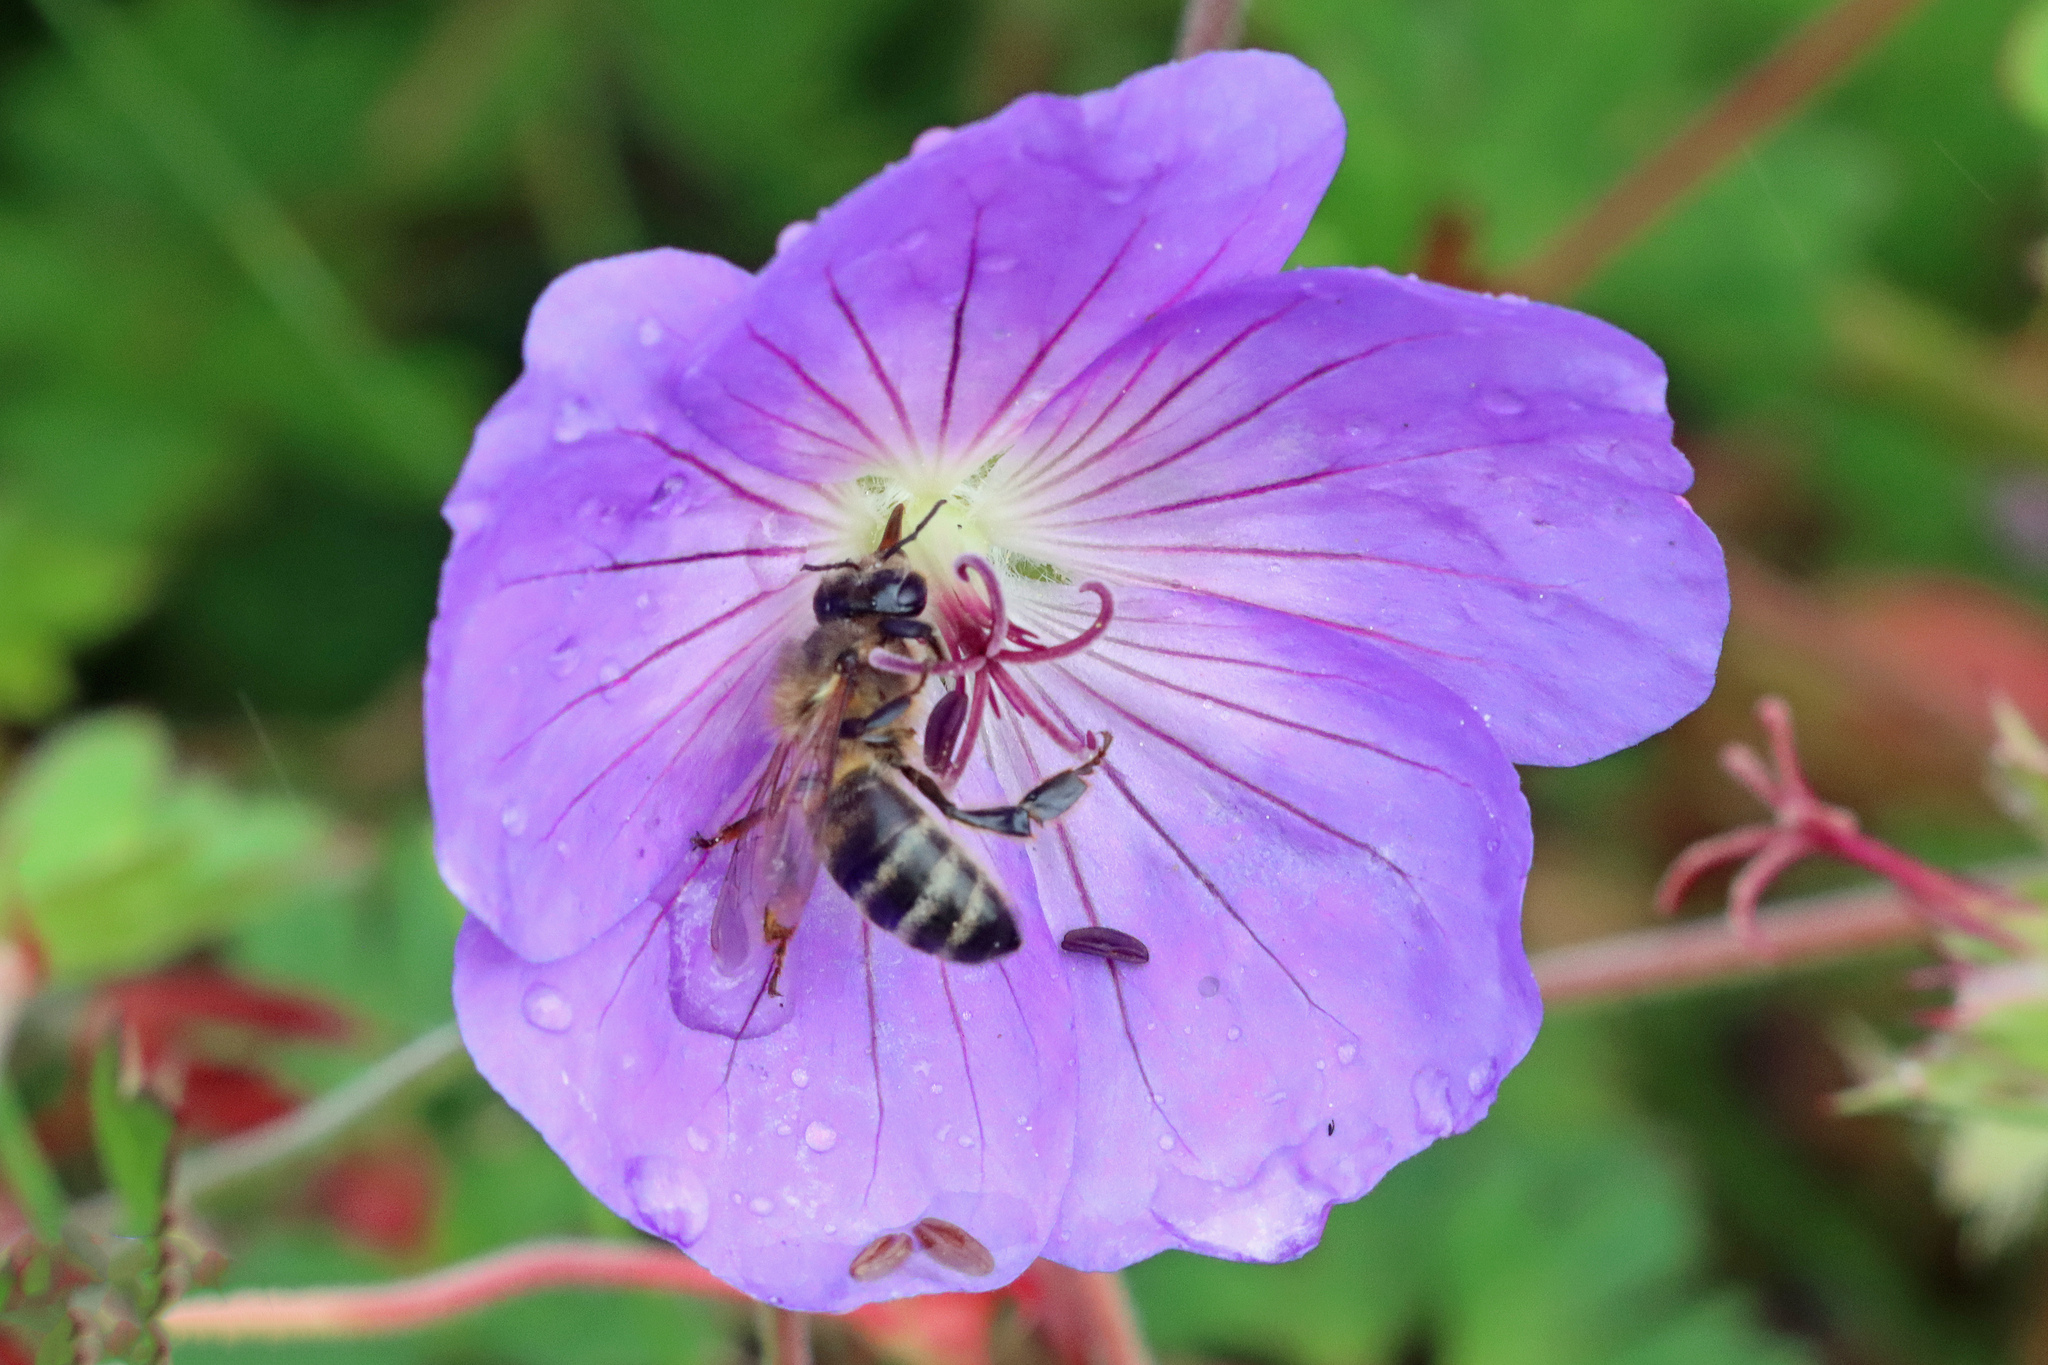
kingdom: Animalia
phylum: Arthropoda
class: Insecta
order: Hymenoptera
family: Apidae
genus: Apis
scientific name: Apis mellifera
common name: Honey bee
